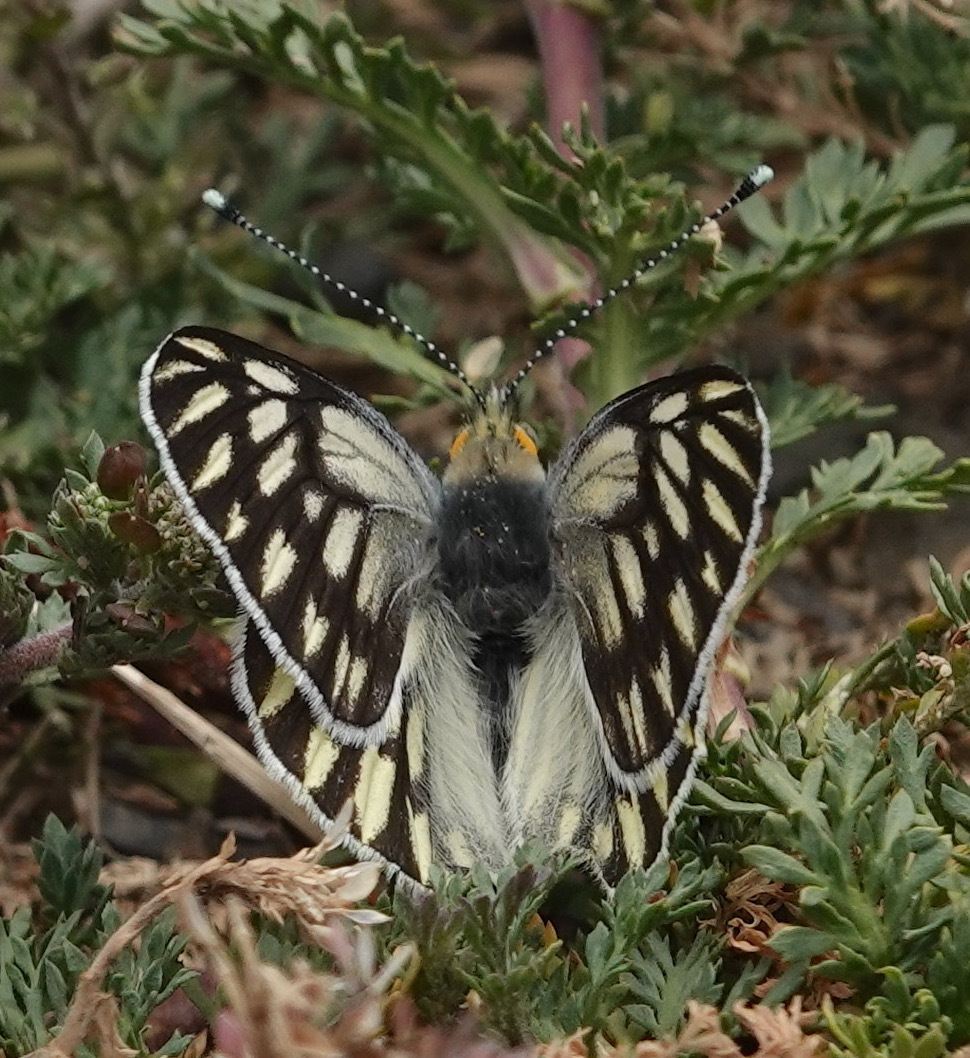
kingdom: Animalia
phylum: Arthropoda
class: Insecta
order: Lepidoptera
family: Pieridae
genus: Tatochila
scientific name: Tatochila mercedis
